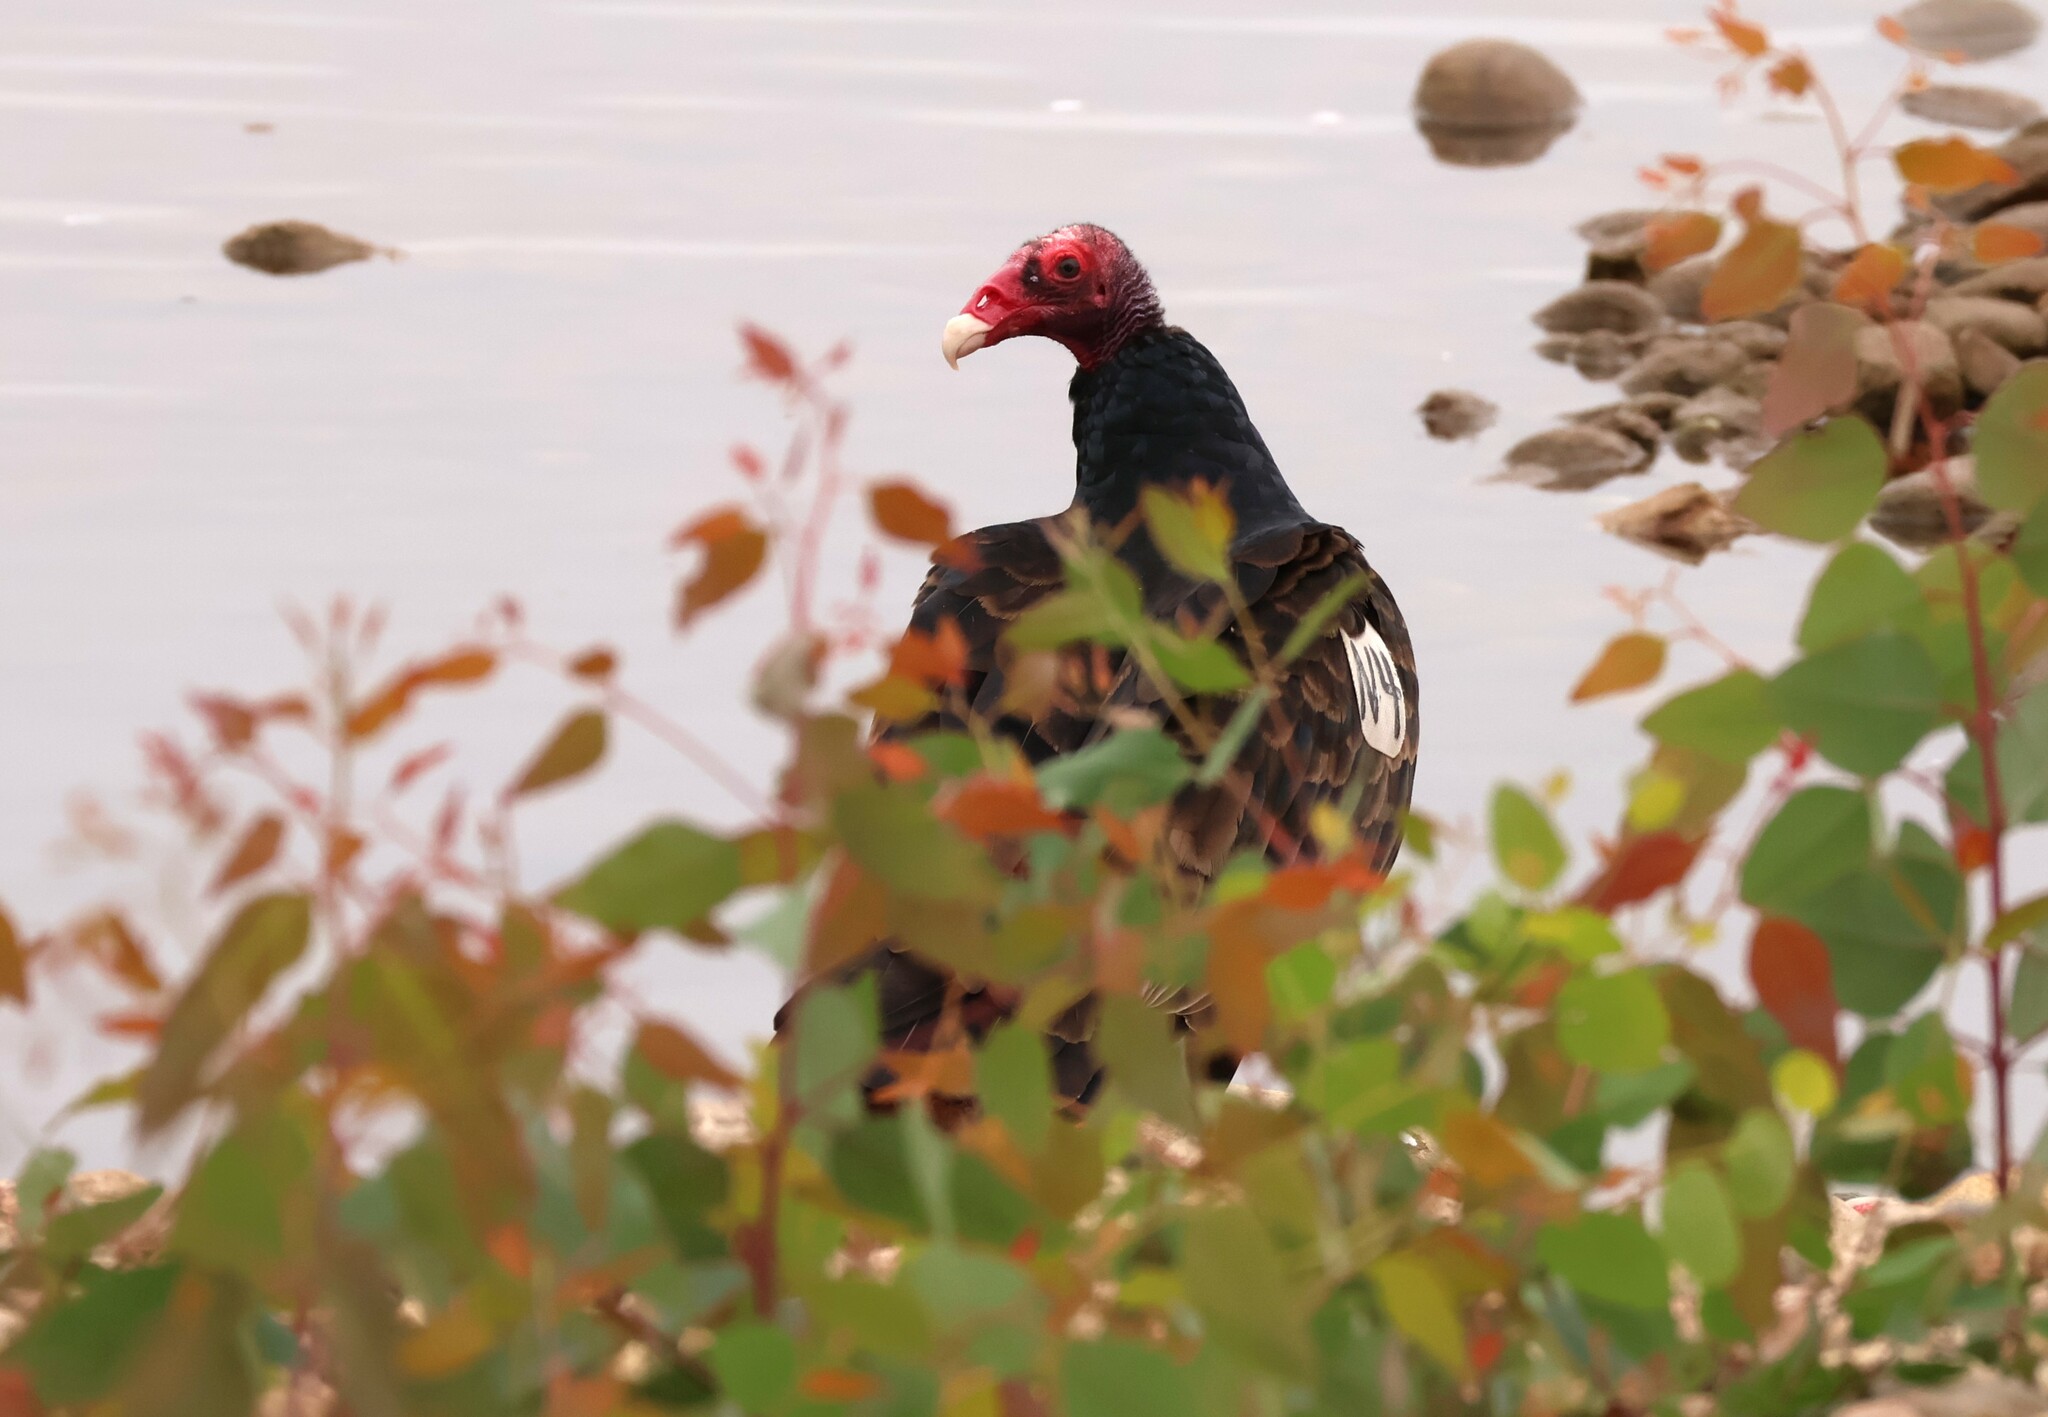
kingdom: Animalia
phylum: Chordata
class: Aves
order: Accipitriformes
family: Cathartidae
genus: Cathartes
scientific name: Cathartes aura
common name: Turkey vulture
